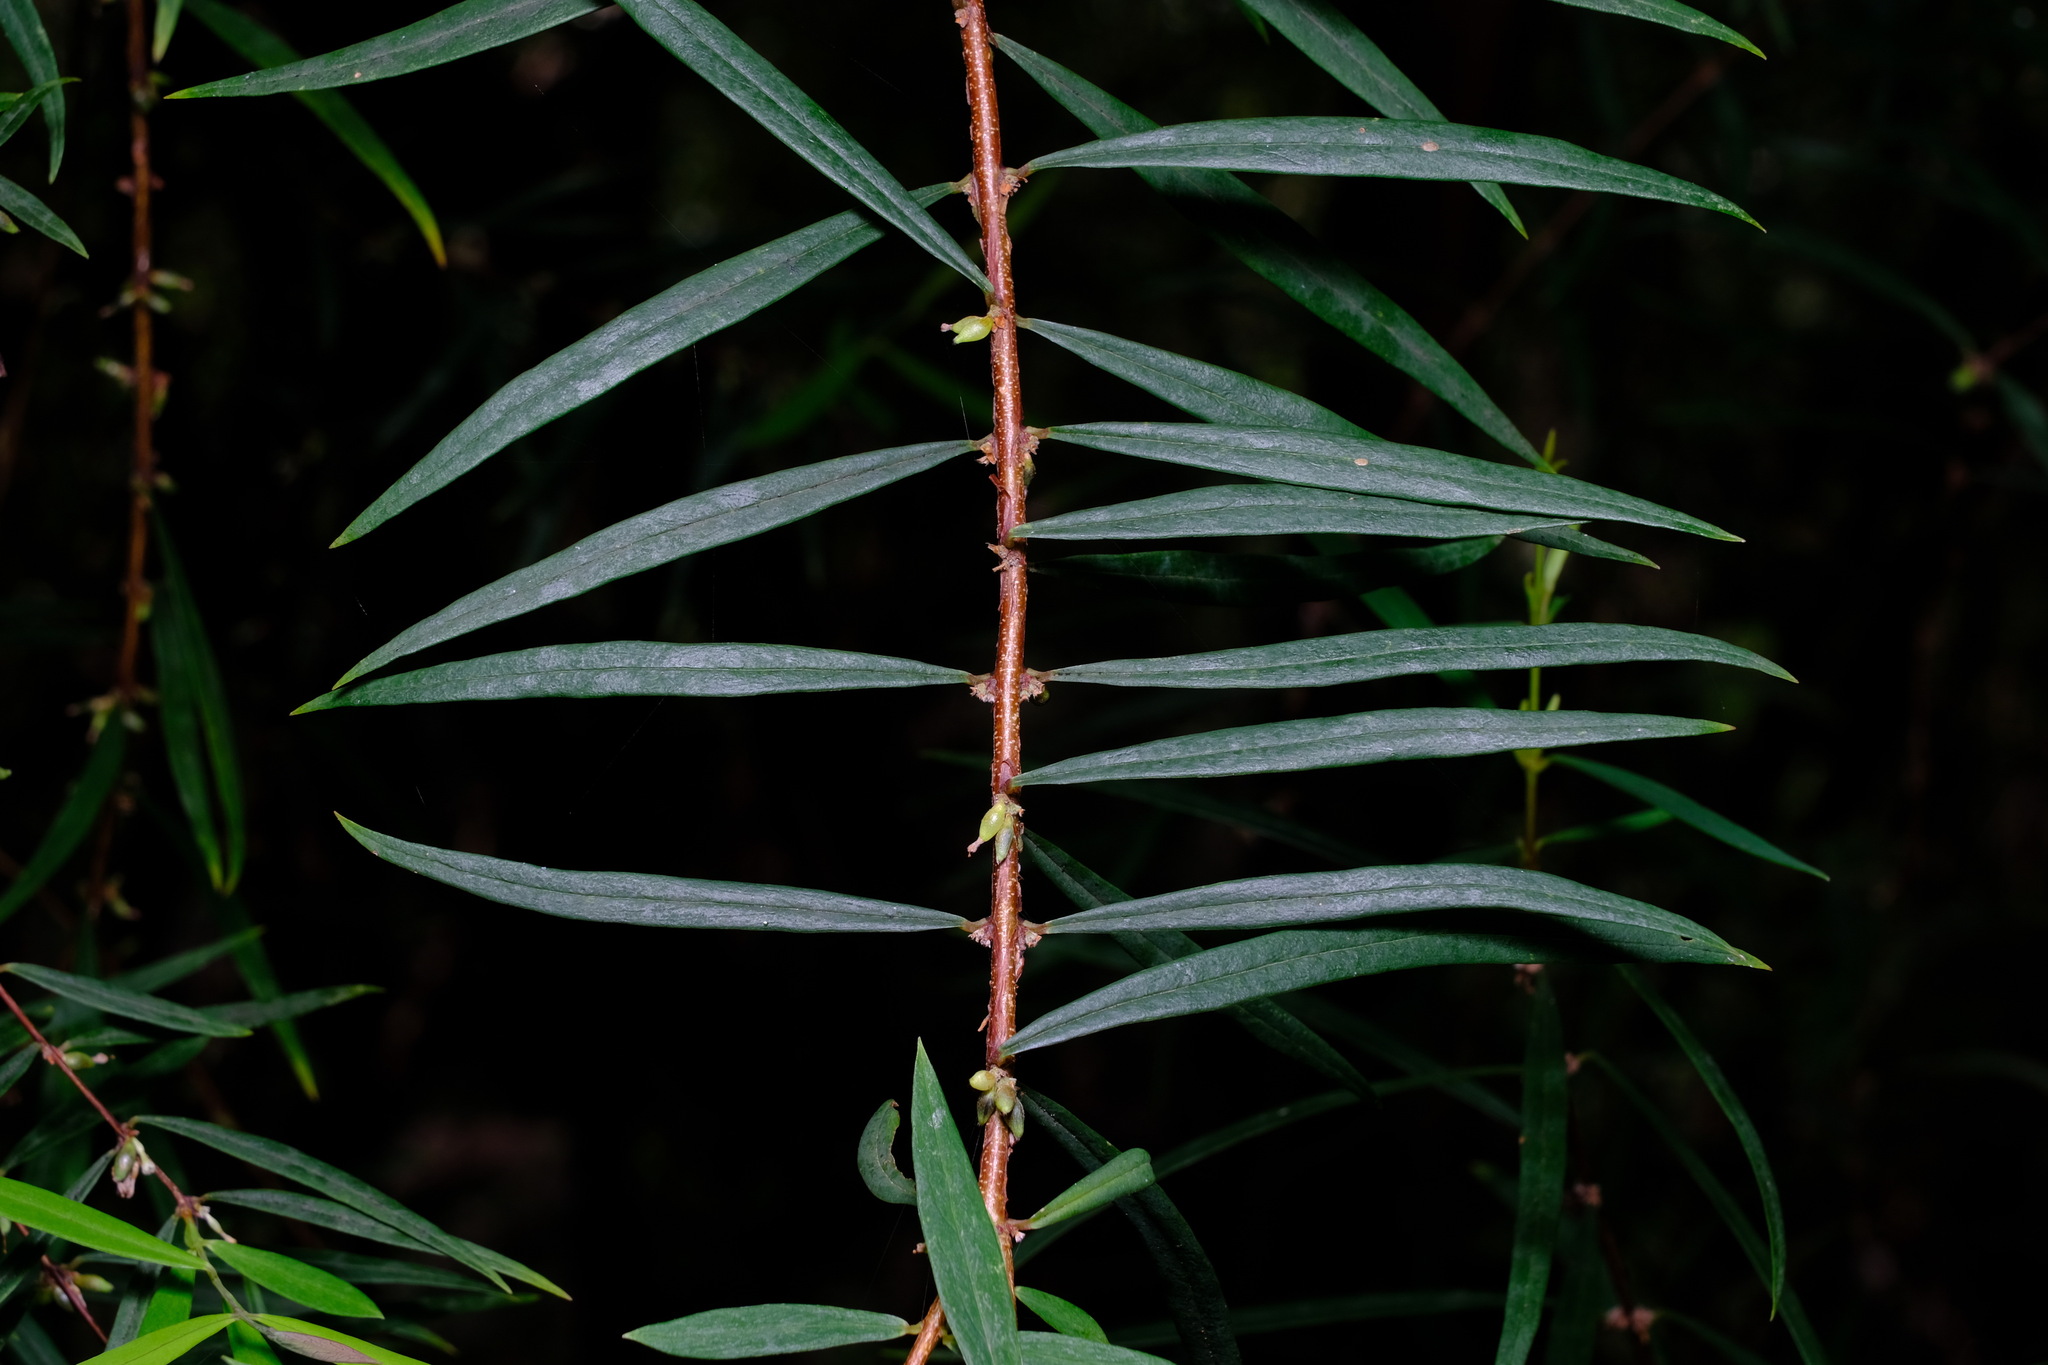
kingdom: Plantae
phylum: Tracheophyta
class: Magnoliopsida
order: Malvales
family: Thymelaeaceae
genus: Pimelea
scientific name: Pimelea axiflora
